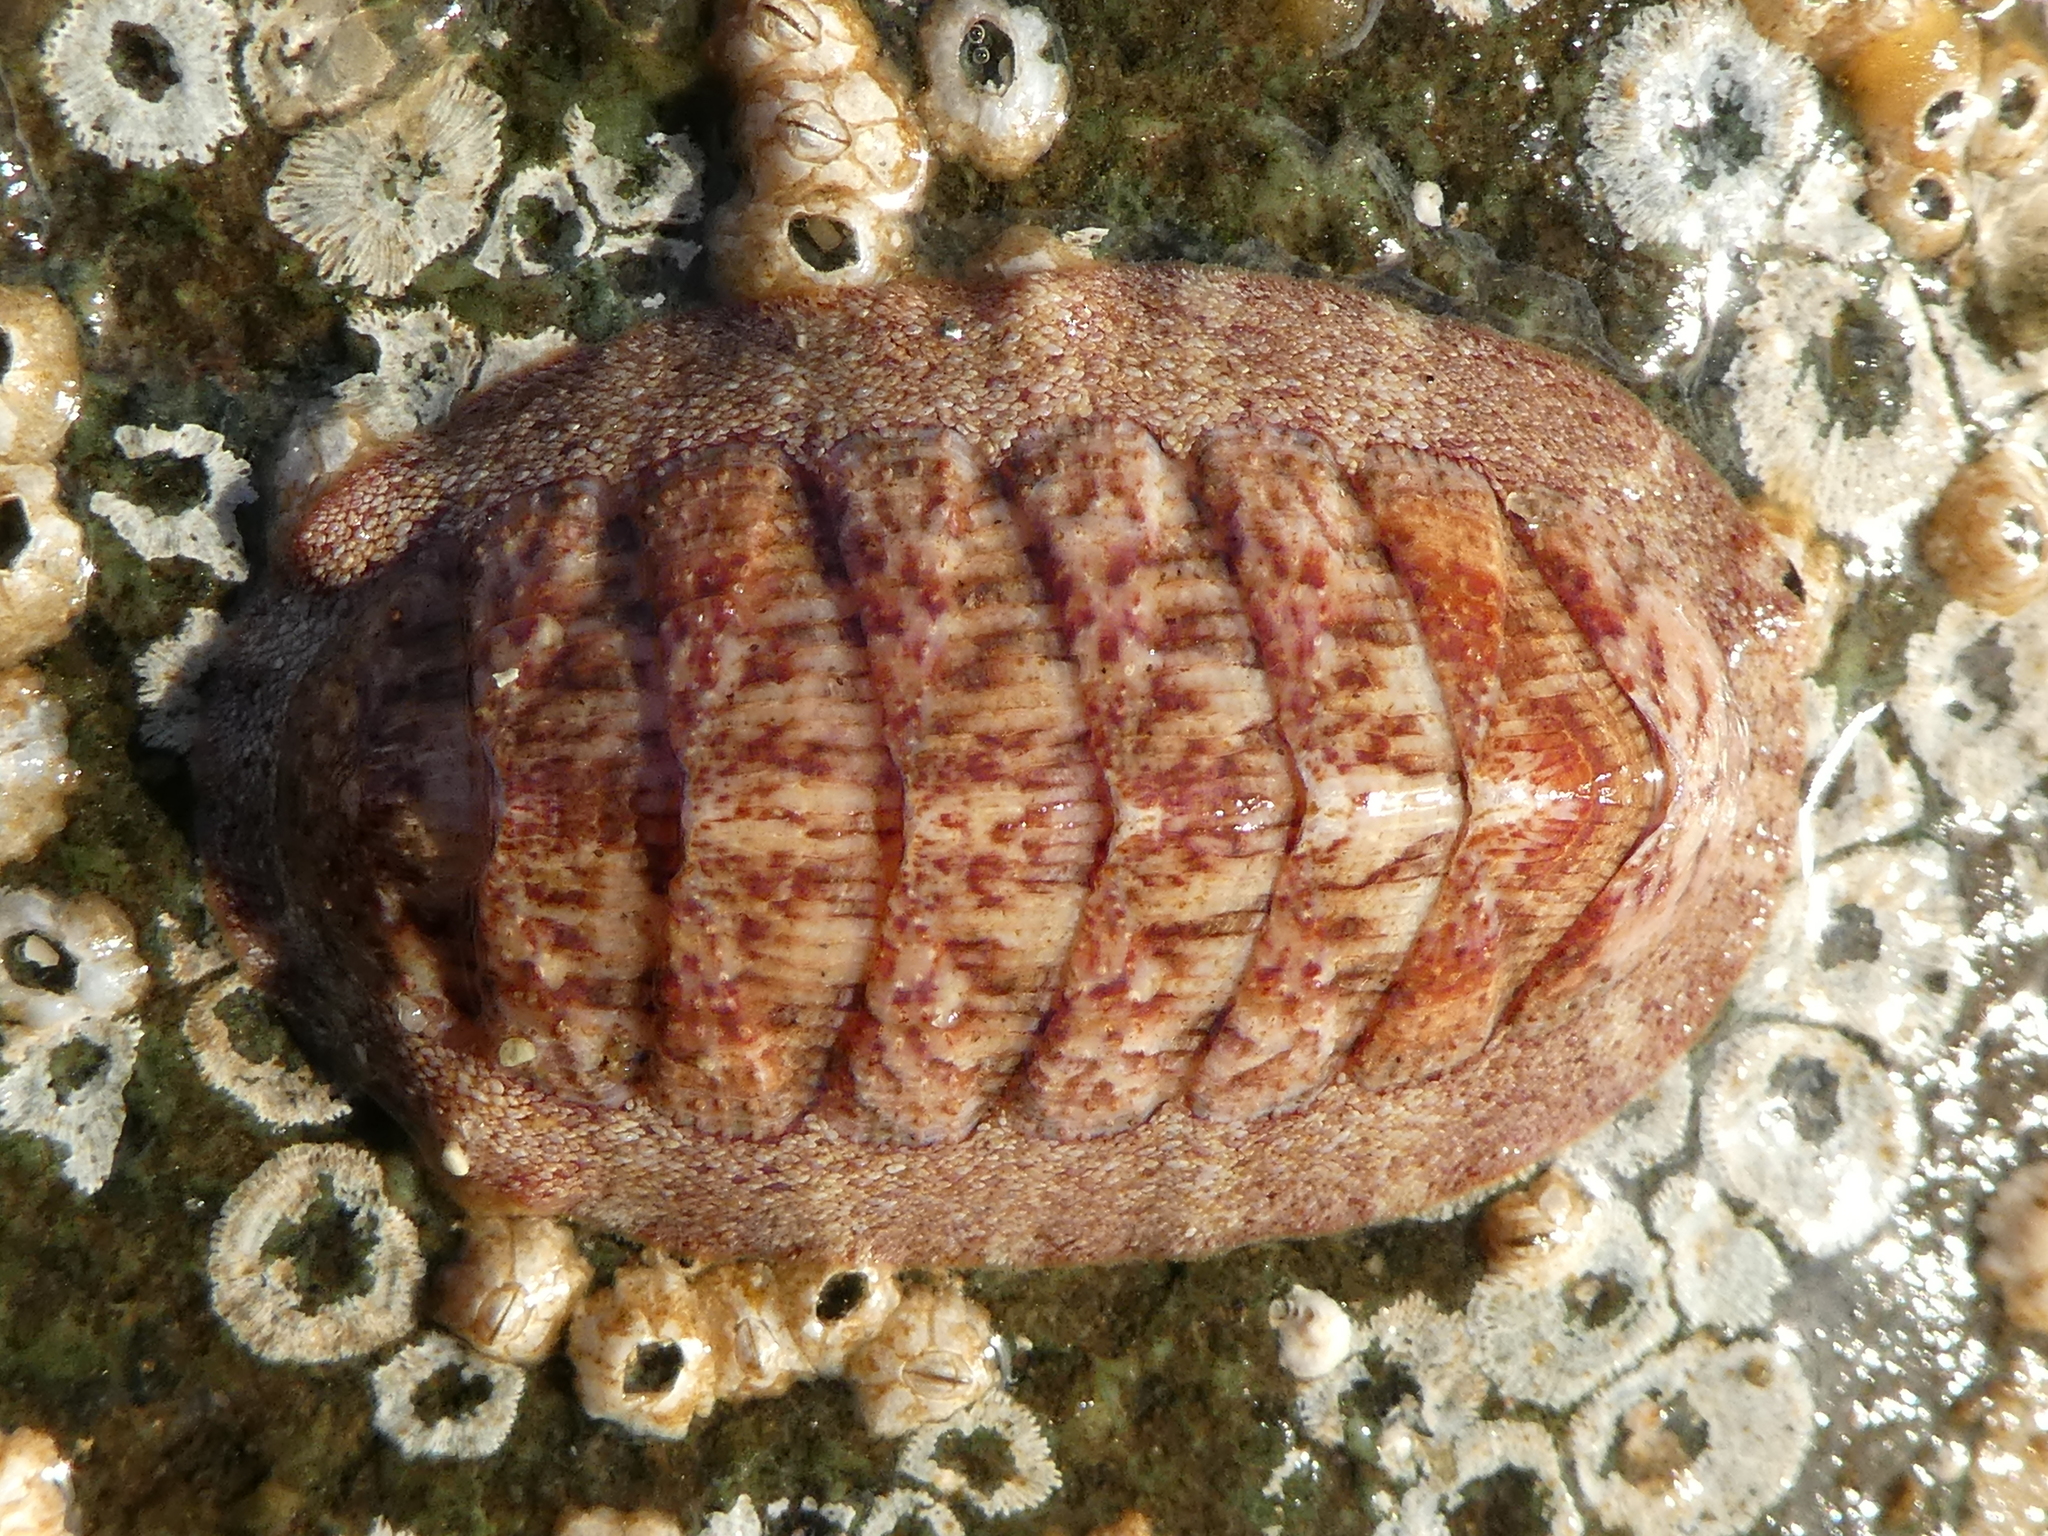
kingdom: Animalia
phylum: Mollusca
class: Polyplacophora
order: Chitonida
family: Ischnochitonidae
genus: Lepidozona
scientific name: Lepidozona mertensii
